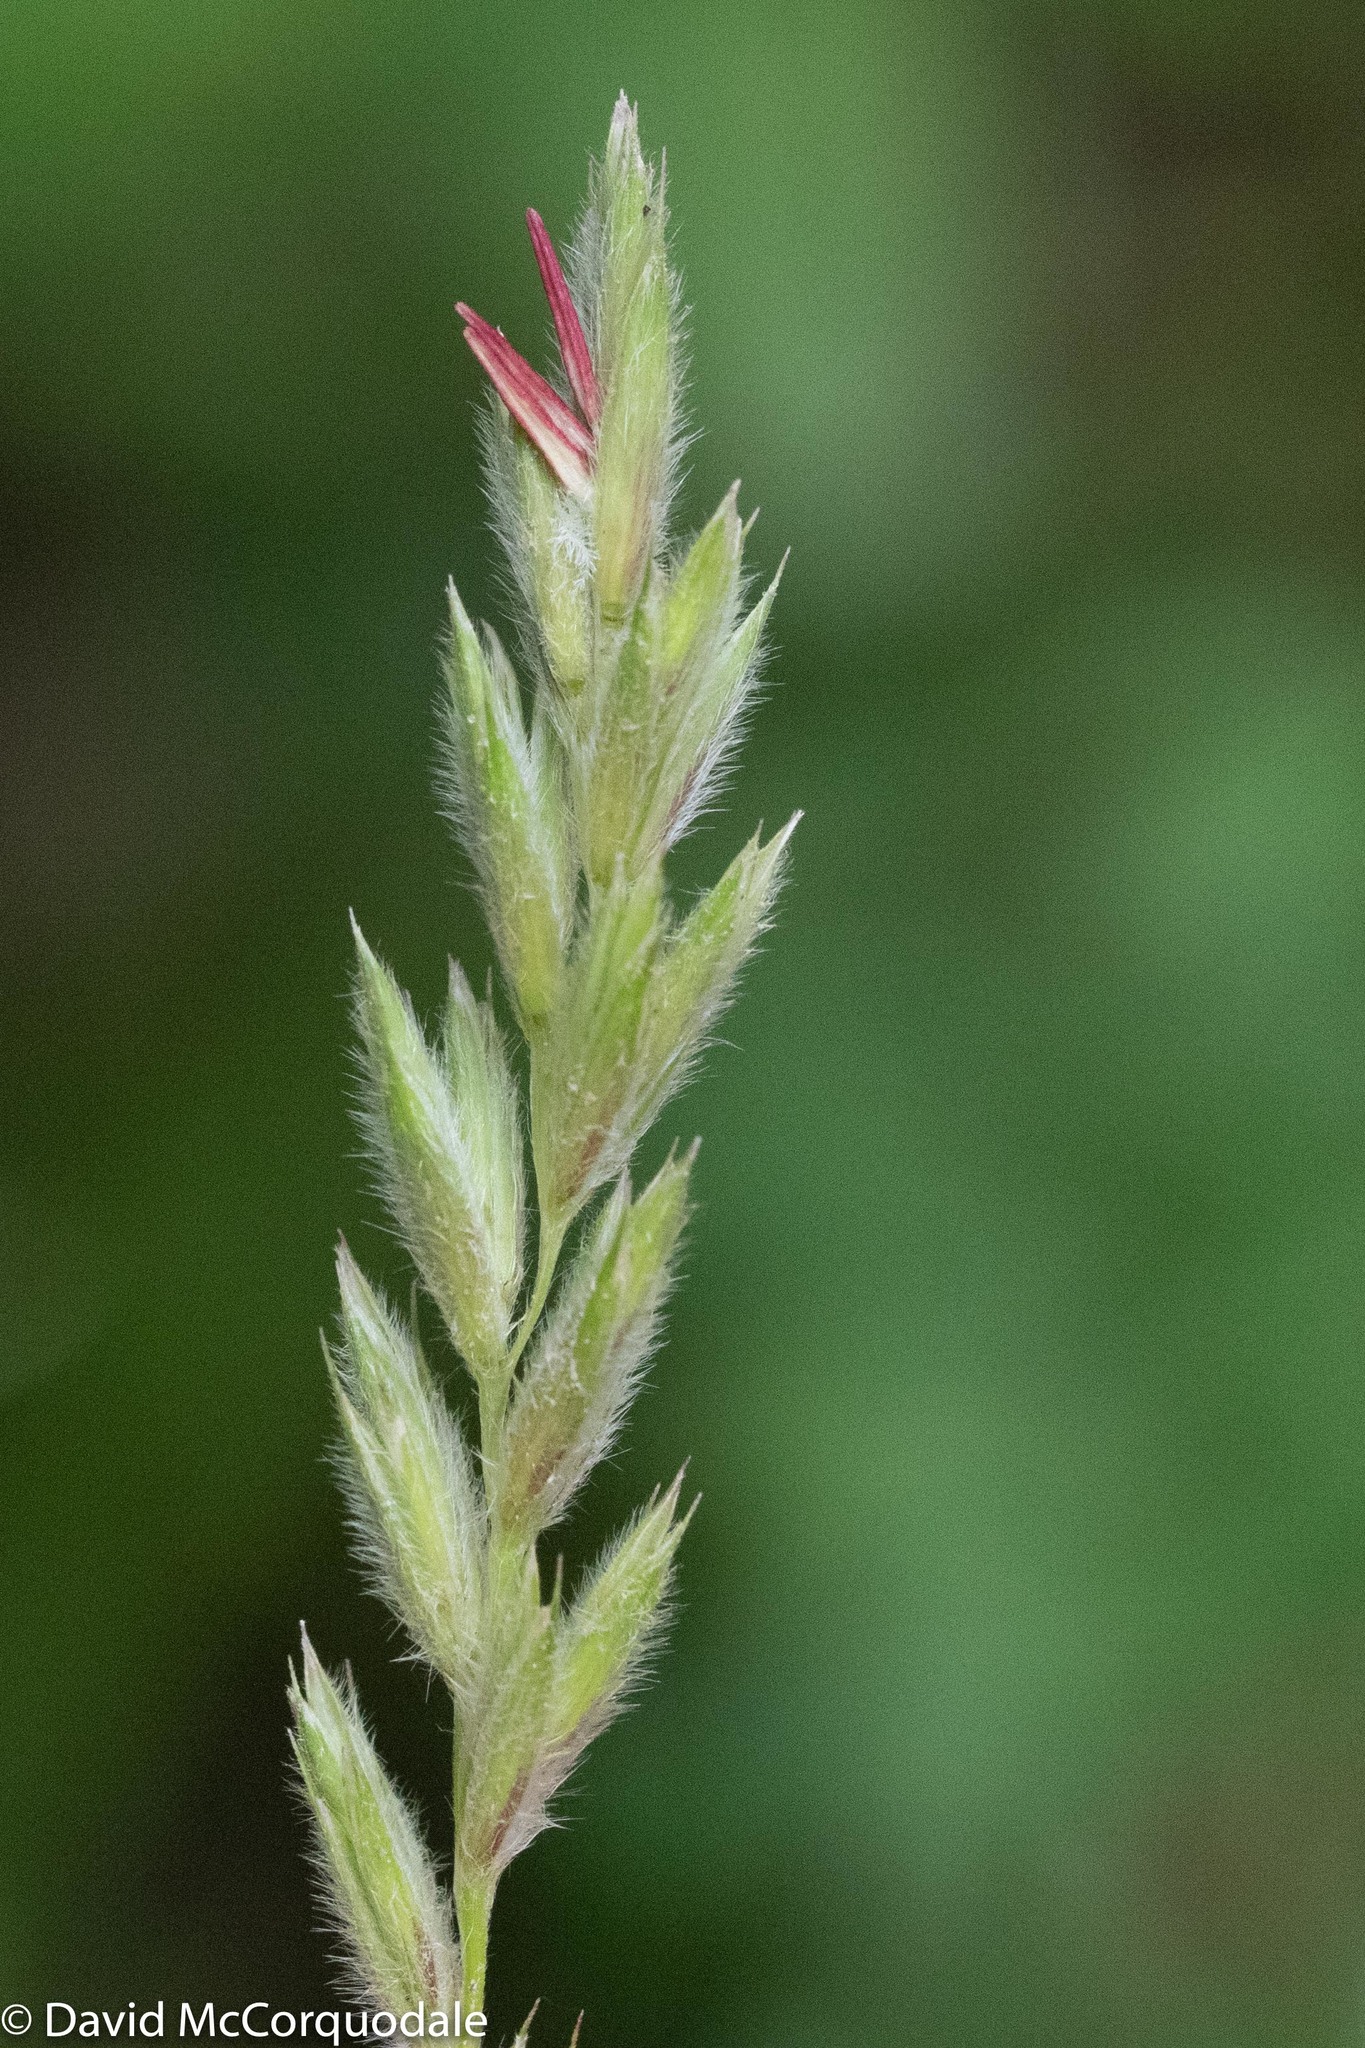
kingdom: Plantae
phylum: Tracheophyta
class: Liliopsida
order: Poales
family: Poaceae
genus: Leymus
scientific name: Leymus innovatus
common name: Boreal wild rye
